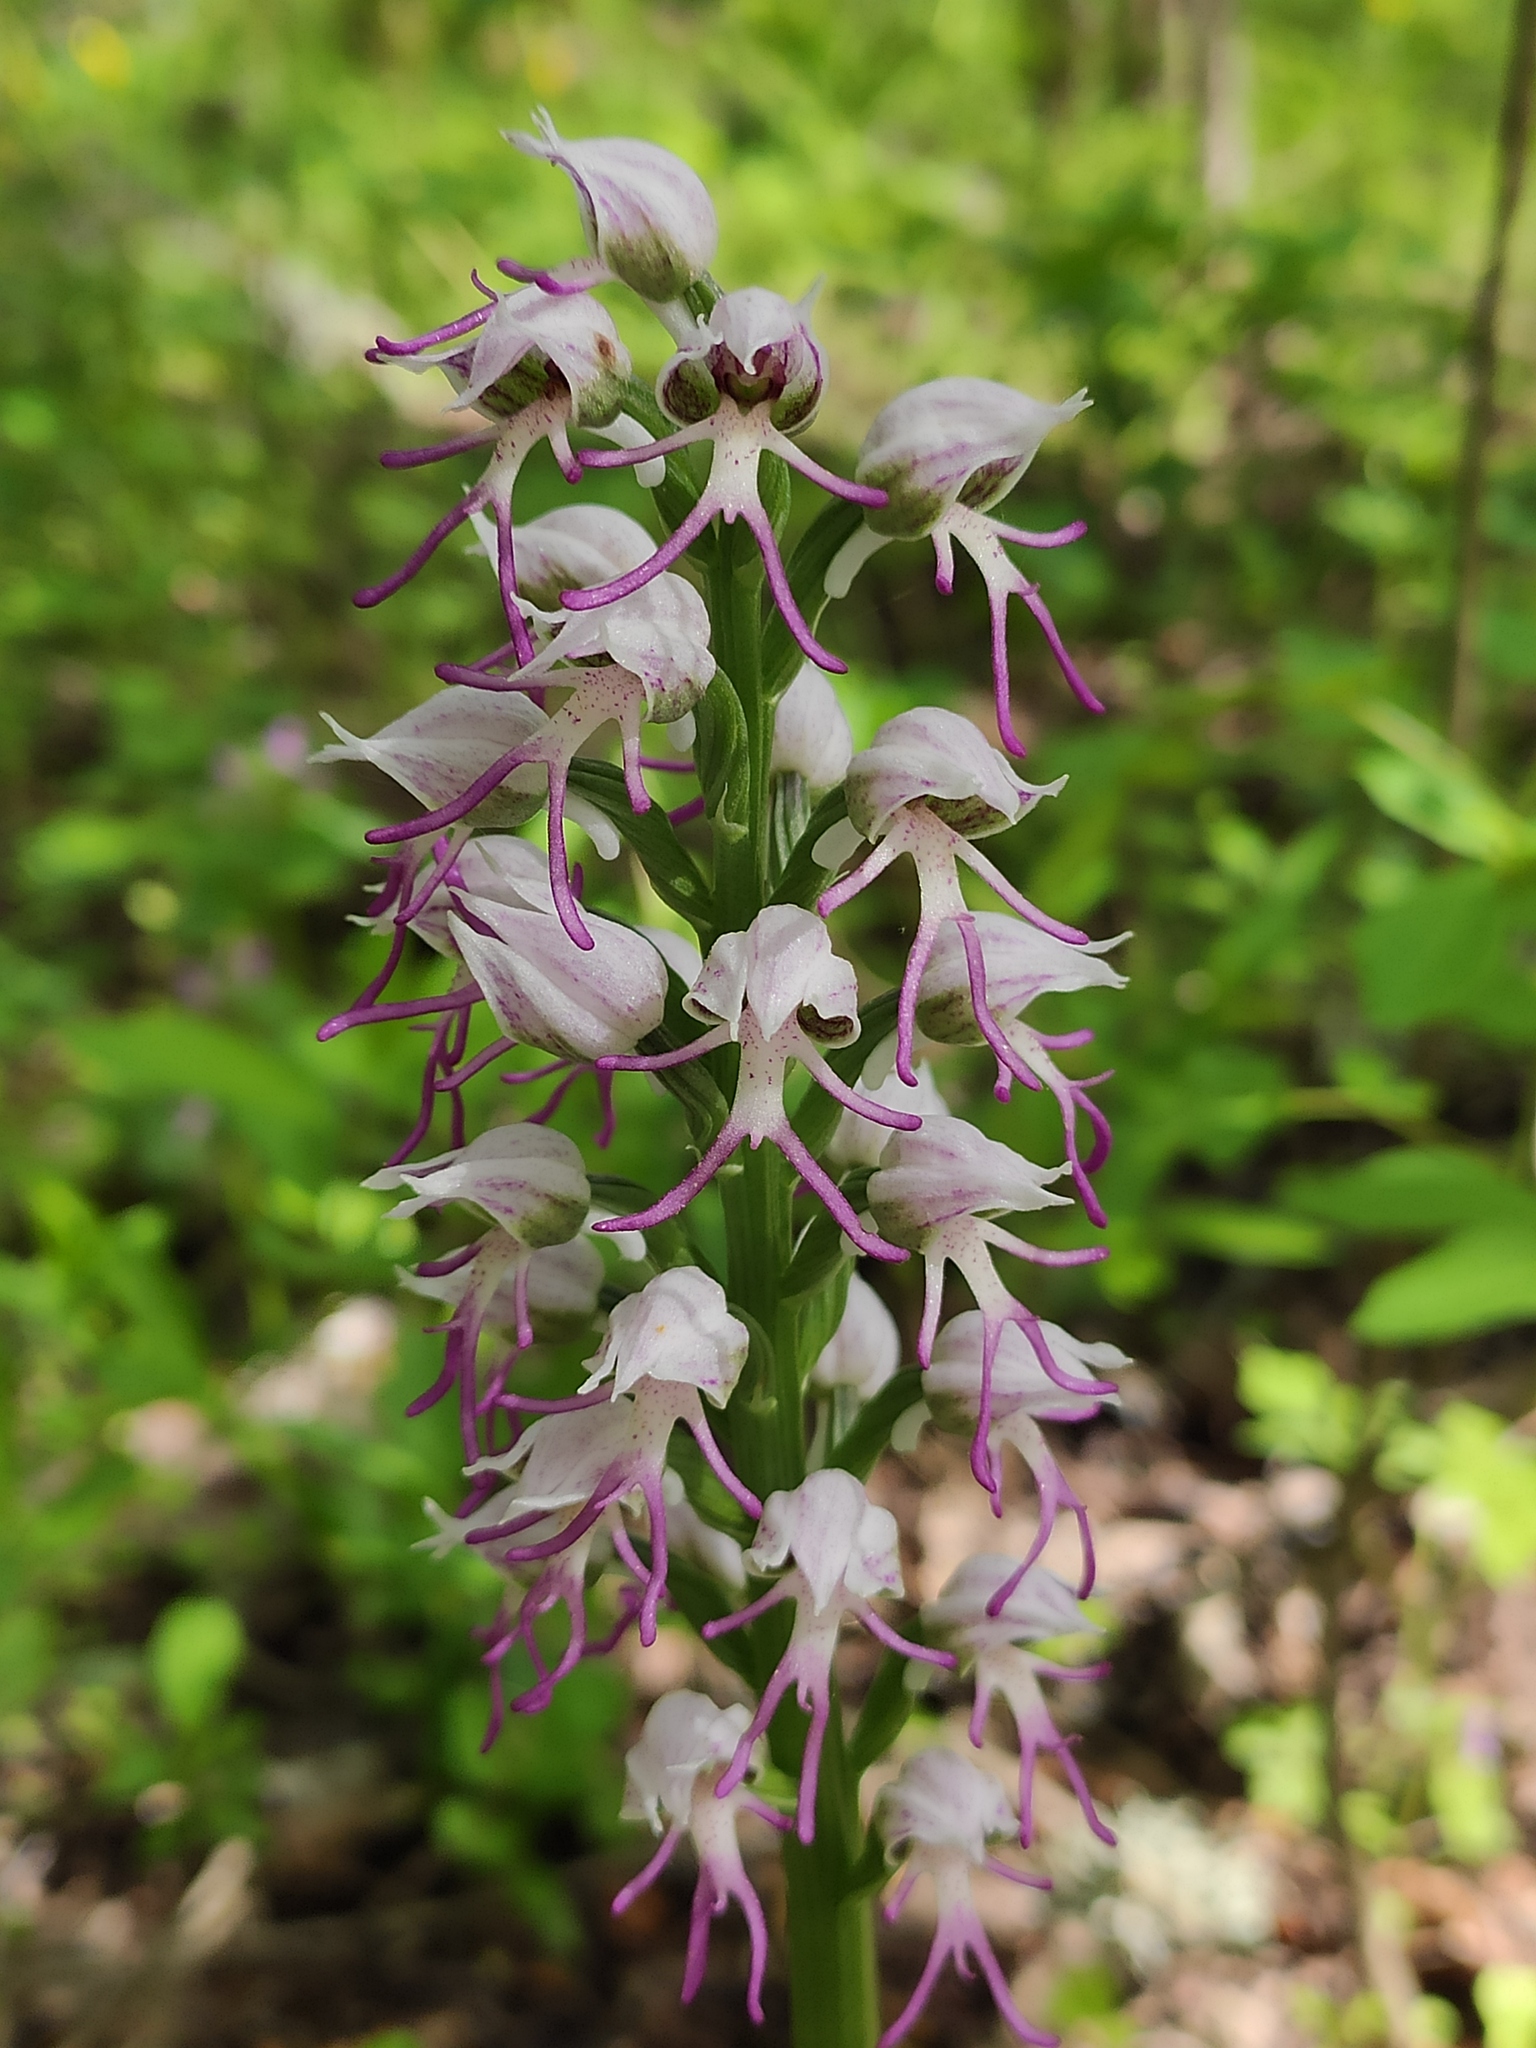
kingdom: Plantae
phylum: Tracheophyta
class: Liliopsida
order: Asparagales
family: Orchidaceae
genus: Orchis
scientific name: Orchis simia
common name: Monkey orchid
